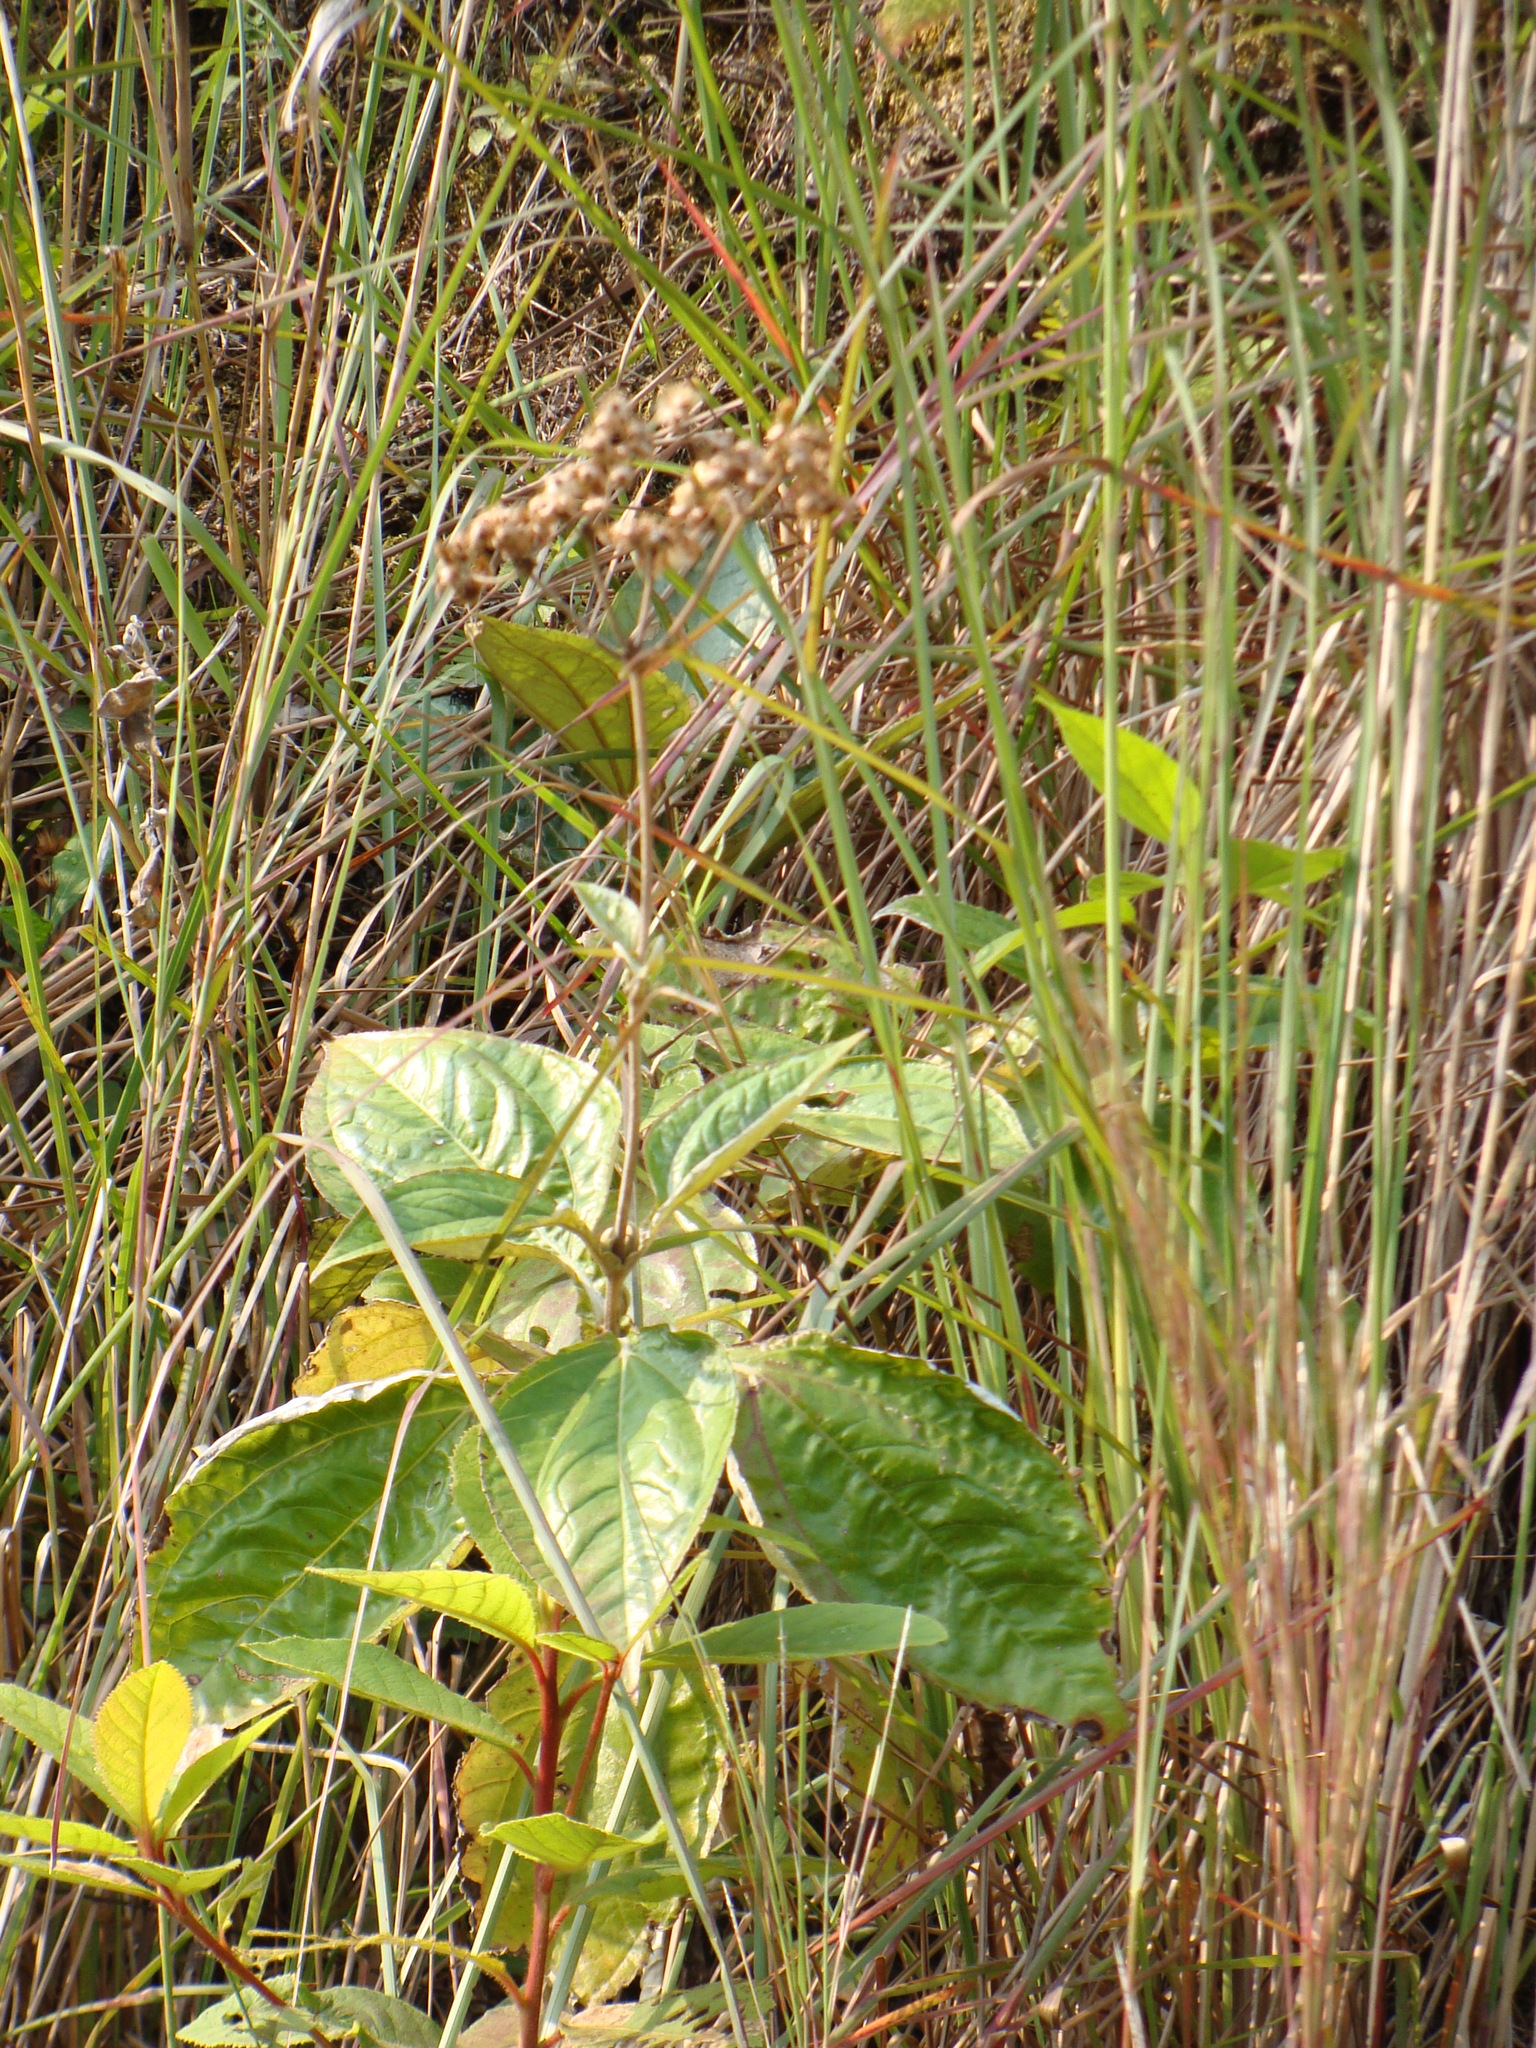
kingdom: Plantae
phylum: Tracheophyta
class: Magnoliopsida
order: Asterales
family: Asteraceae
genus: Liabum
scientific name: Liabum asclepiadeum
